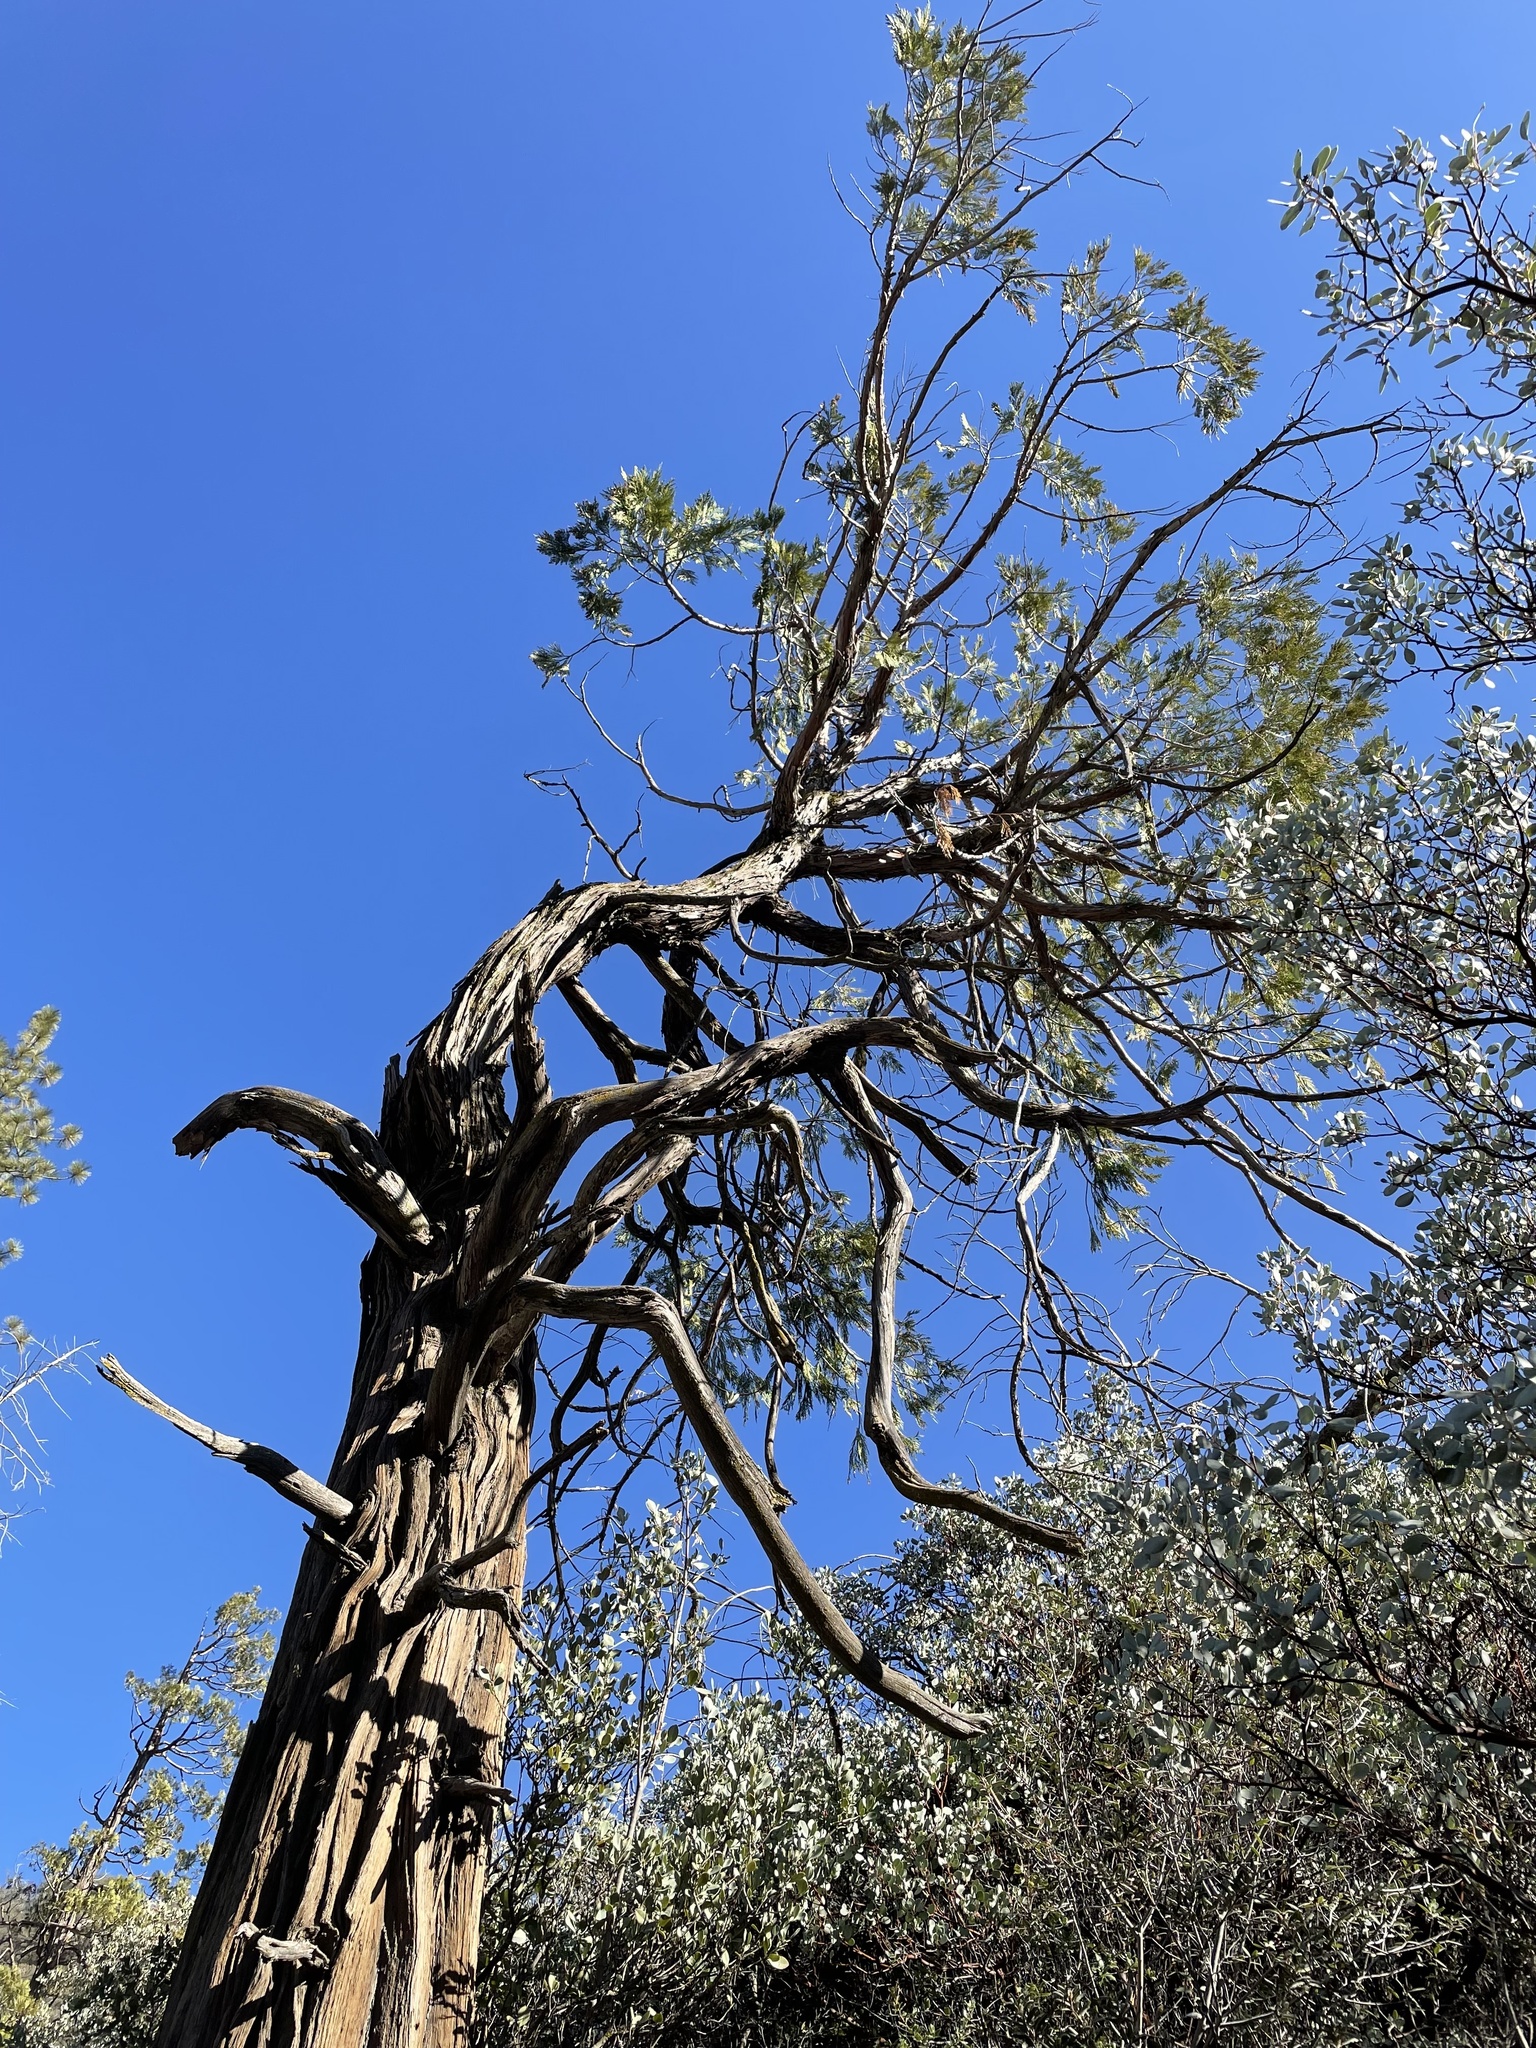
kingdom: Plantae
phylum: Tracheophyta
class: Pinopsida
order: Pinales
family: Cupressaceae
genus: Calocedrus
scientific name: Calocedrus decurrens
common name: Californian incense-cedar
